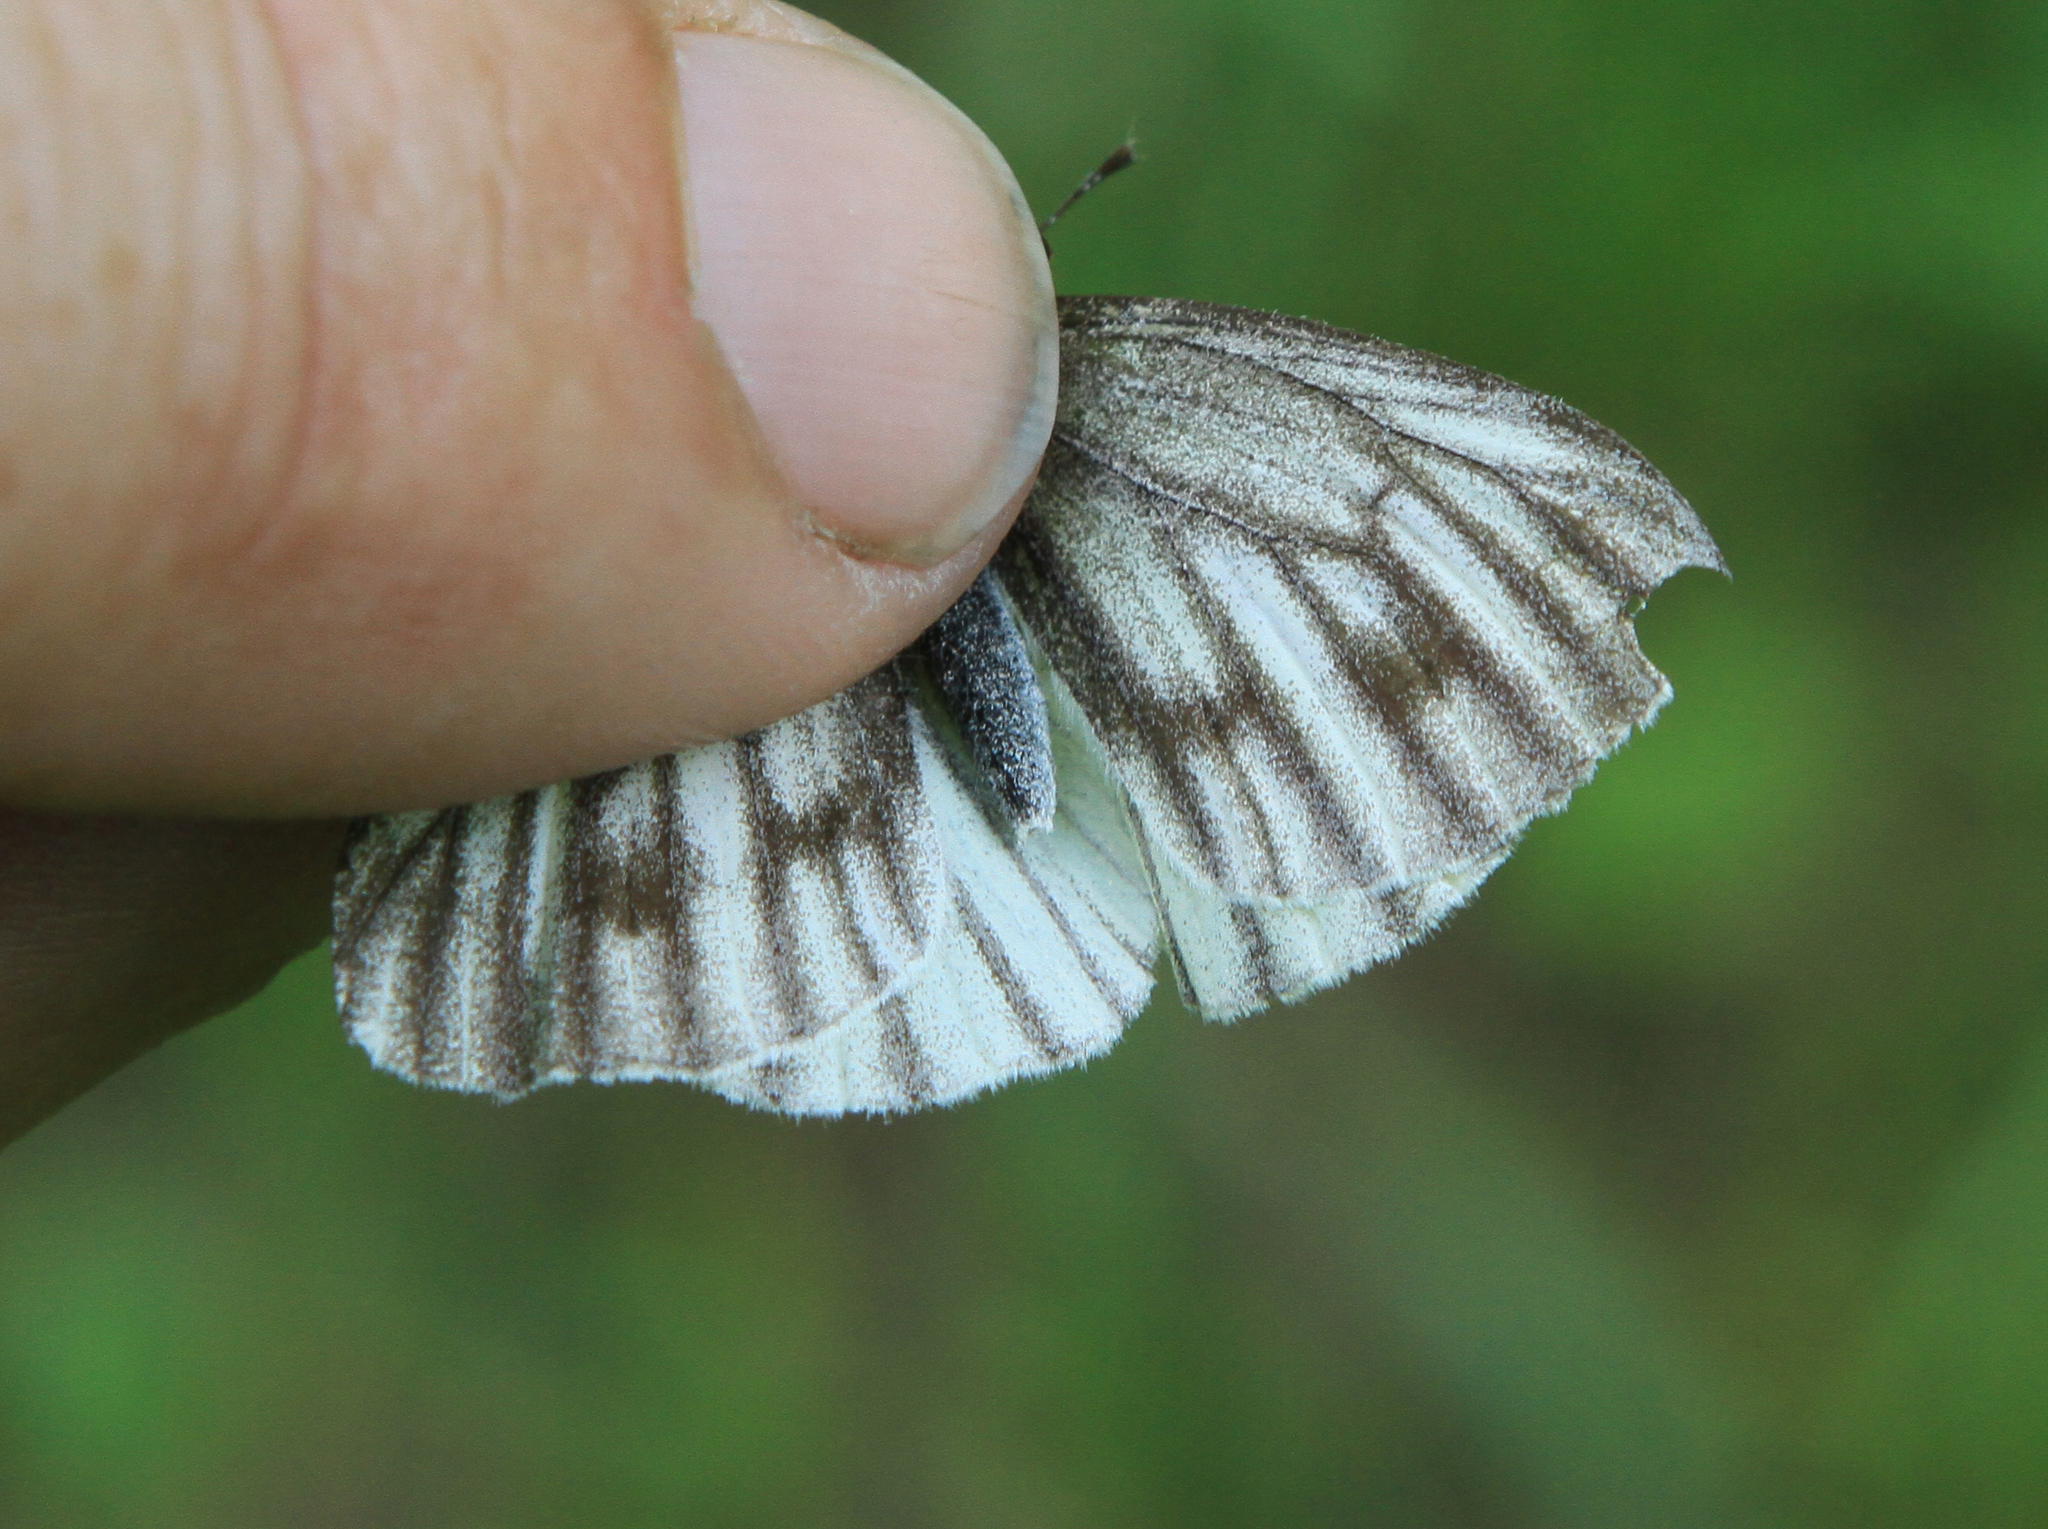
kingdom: Animalia
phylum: Arthropoda
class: Insecta
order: Lepidoptera
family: Pieridae
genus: Pieris
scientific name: Pieris napi
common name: Green-veined white
